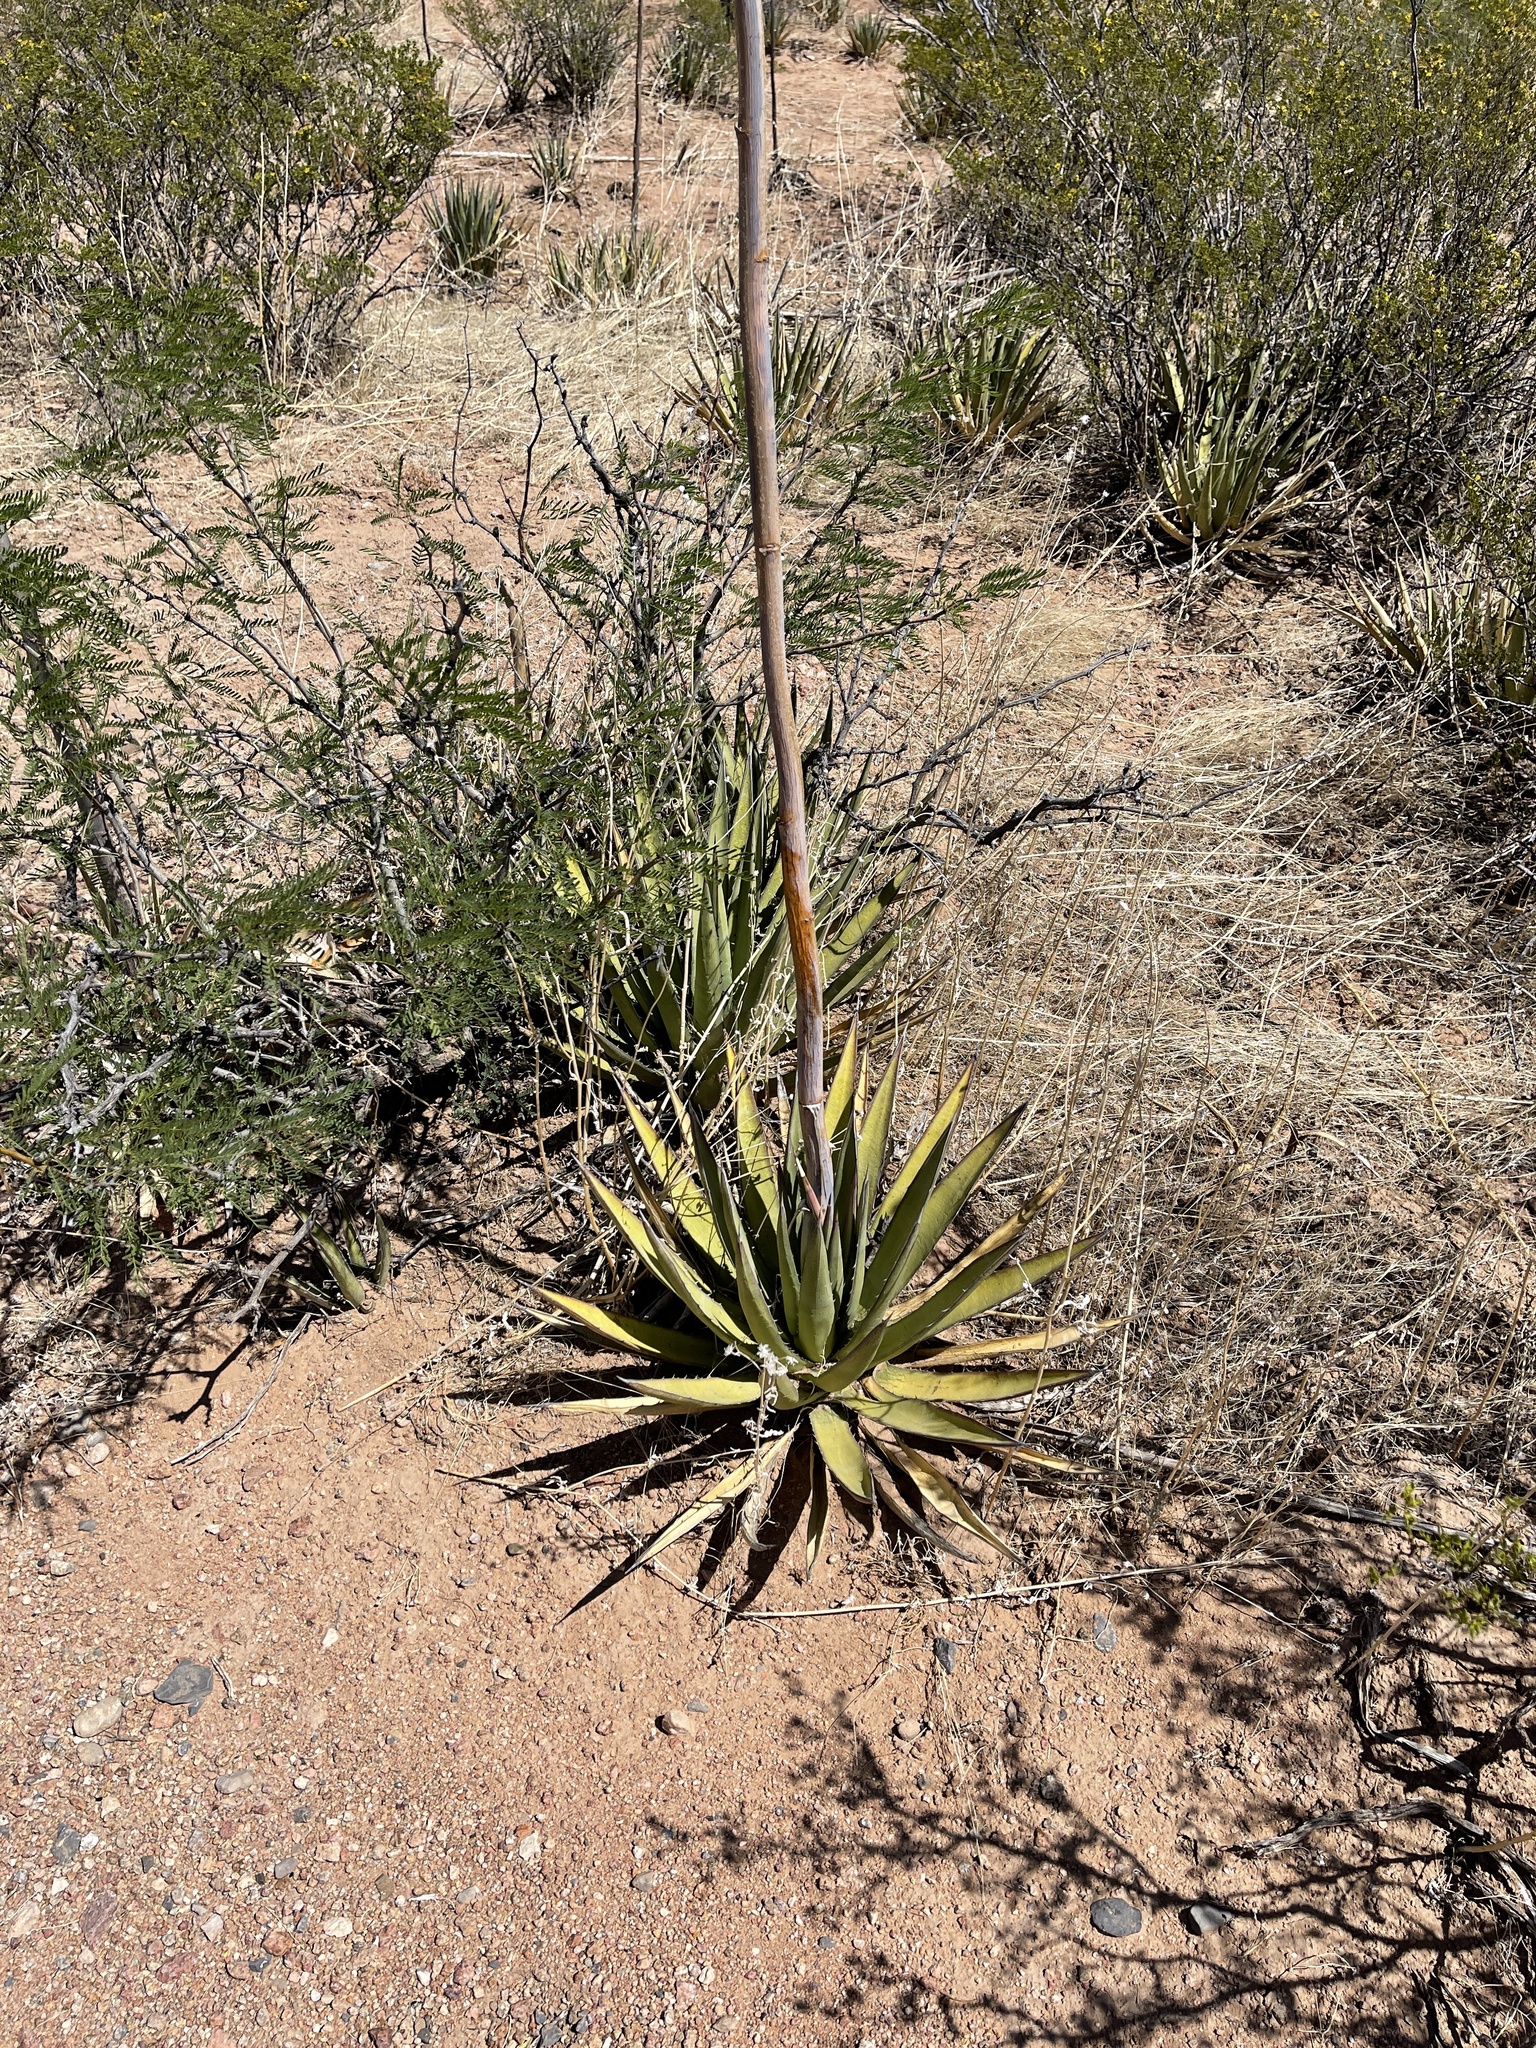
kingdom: Plantae
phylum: Tracheophyta
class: Liliopsida
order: Asparagales
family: Asparagaceae
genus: Agave
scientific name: Agave lechuguilla
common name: Lecheguilla agave
